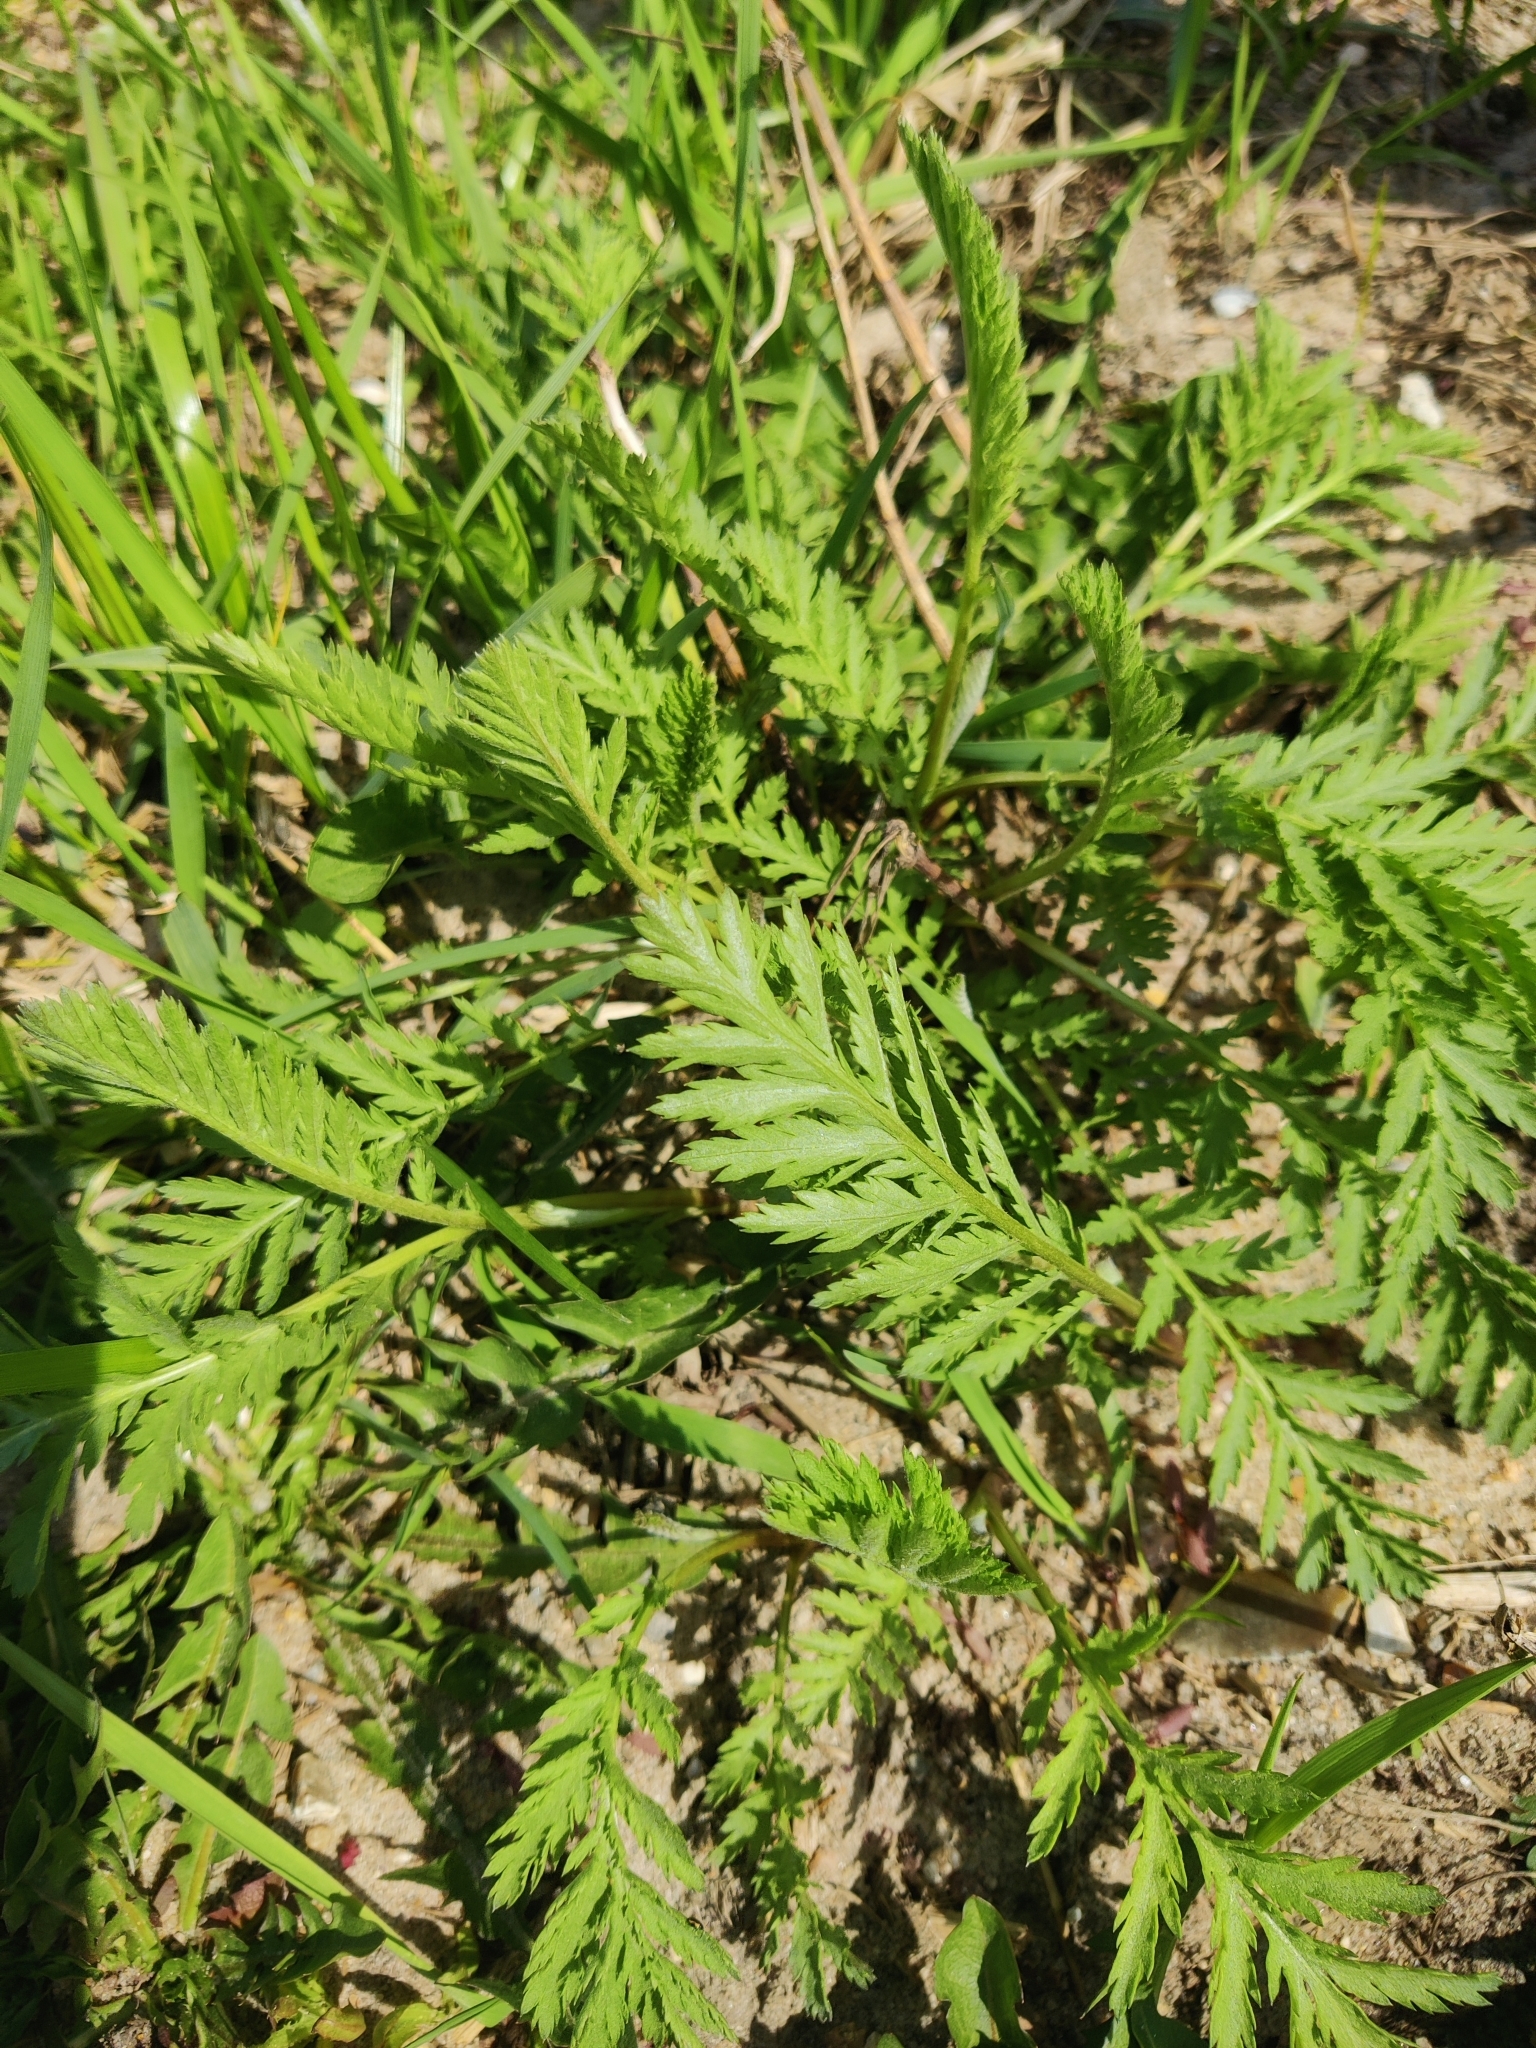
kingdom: Plantae
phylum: Tracheophyta
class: Magnoliopsida
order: Asterales
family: Asteraceae
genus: Tanacetum
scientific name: Tanacetum vulgare
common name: Common tansy
